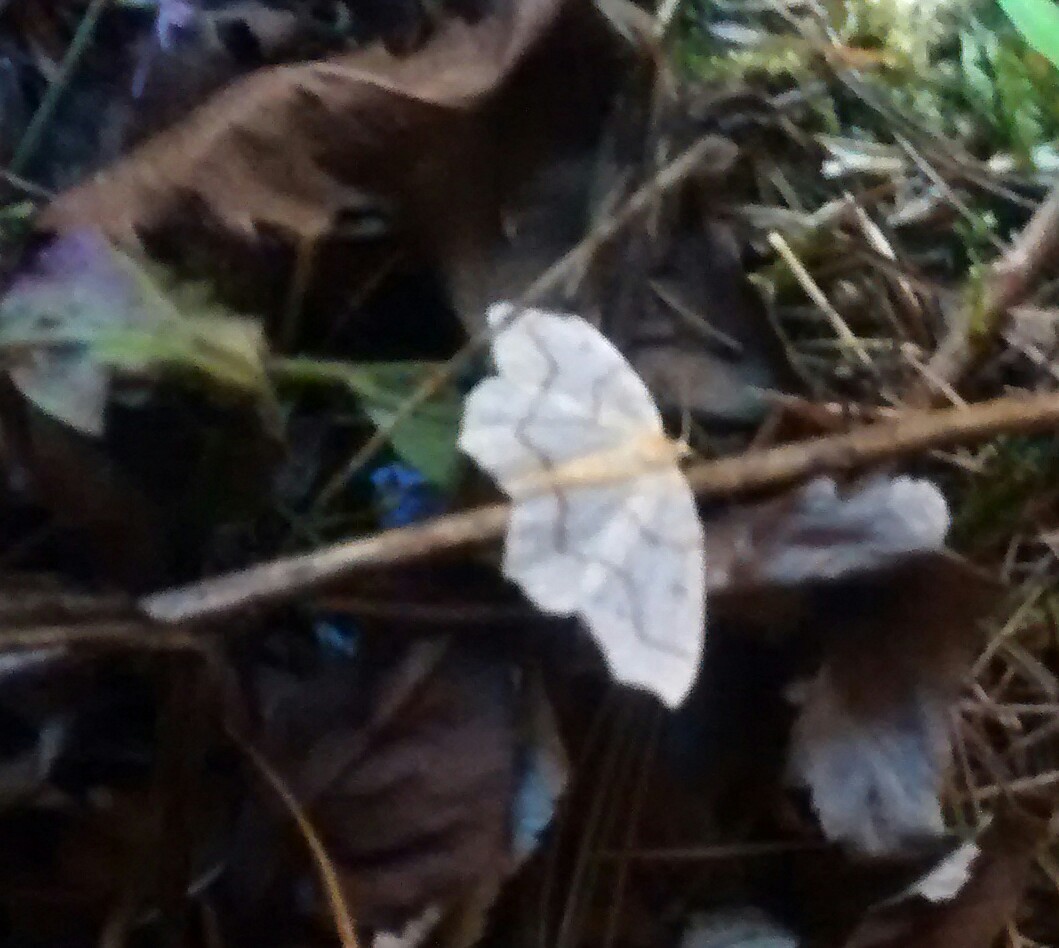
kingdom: Animalia
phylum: Arthropoda
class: Insecta
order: Lepidoptera
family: Geometridae
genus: Lambdina
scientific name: Lambdina fiscellaria
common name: Hemlock looper
